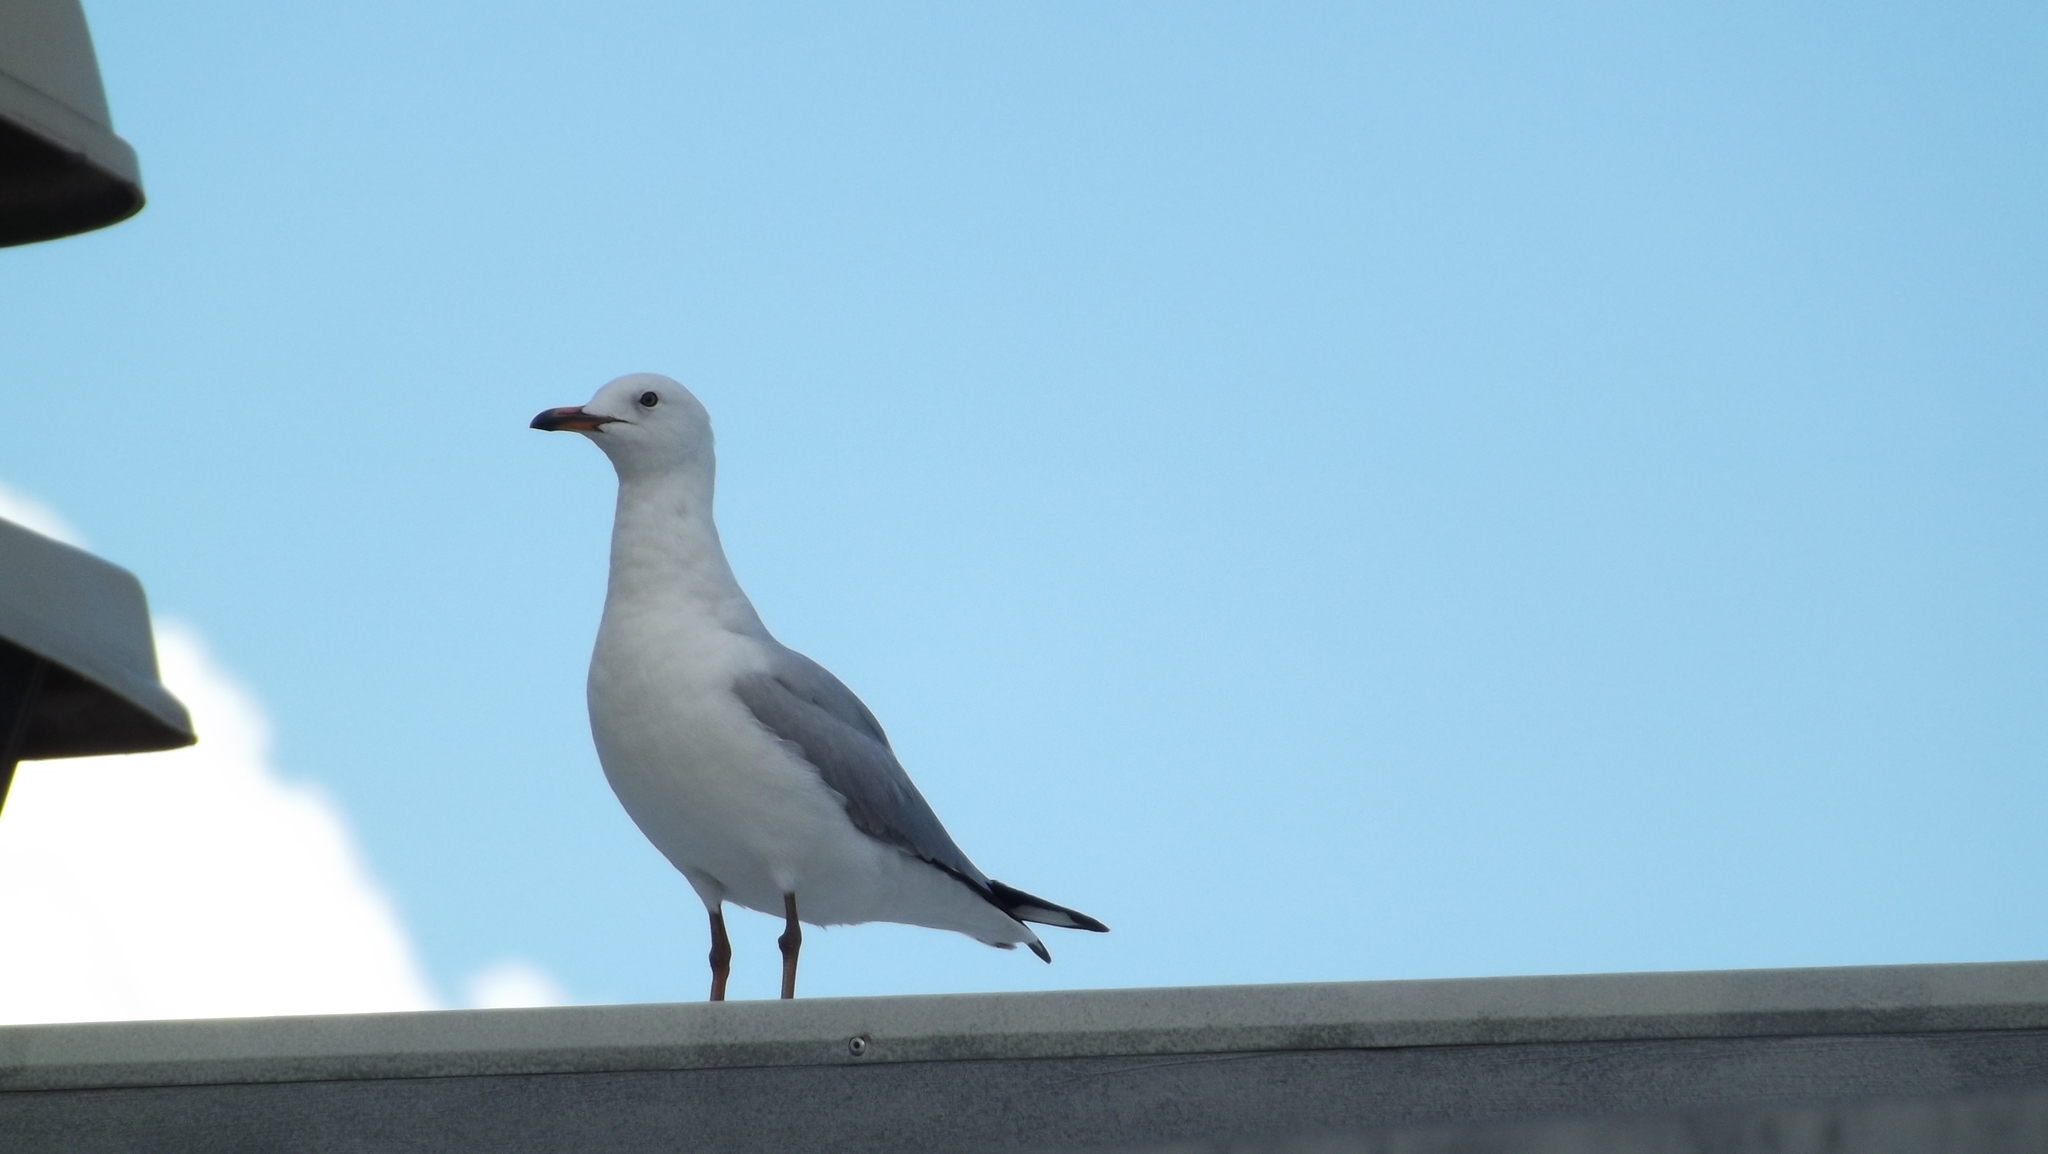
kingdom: Animalia
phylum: Chordata
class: Aves
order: Charadriiformes
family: Laridae
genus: Chroicocephalus
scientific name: Chroicocephalus novaehollandiae
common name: Silver gull
